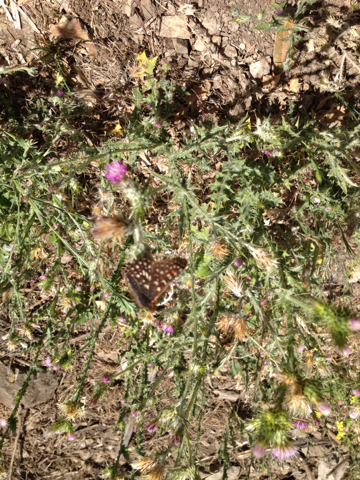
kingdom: Animalia
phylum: Arthropoda
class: Insecta
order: Lepidoptera
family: Nymphalidae
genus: Occidryas
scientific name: Occidryas chalcedona
